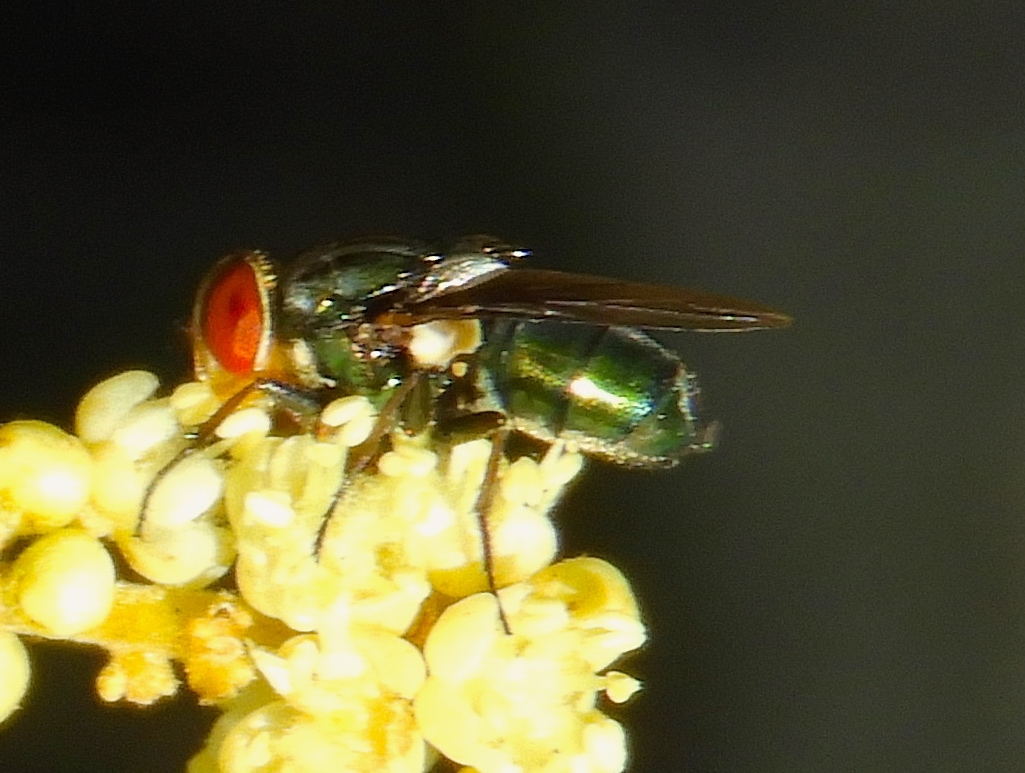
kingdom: Animalia
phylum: Arthropoda
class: Insecta
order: Diptera
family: Calliphoridae
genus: Cochliomyia
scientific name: Cochliomyia macellaria
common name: Secondary screwworm
